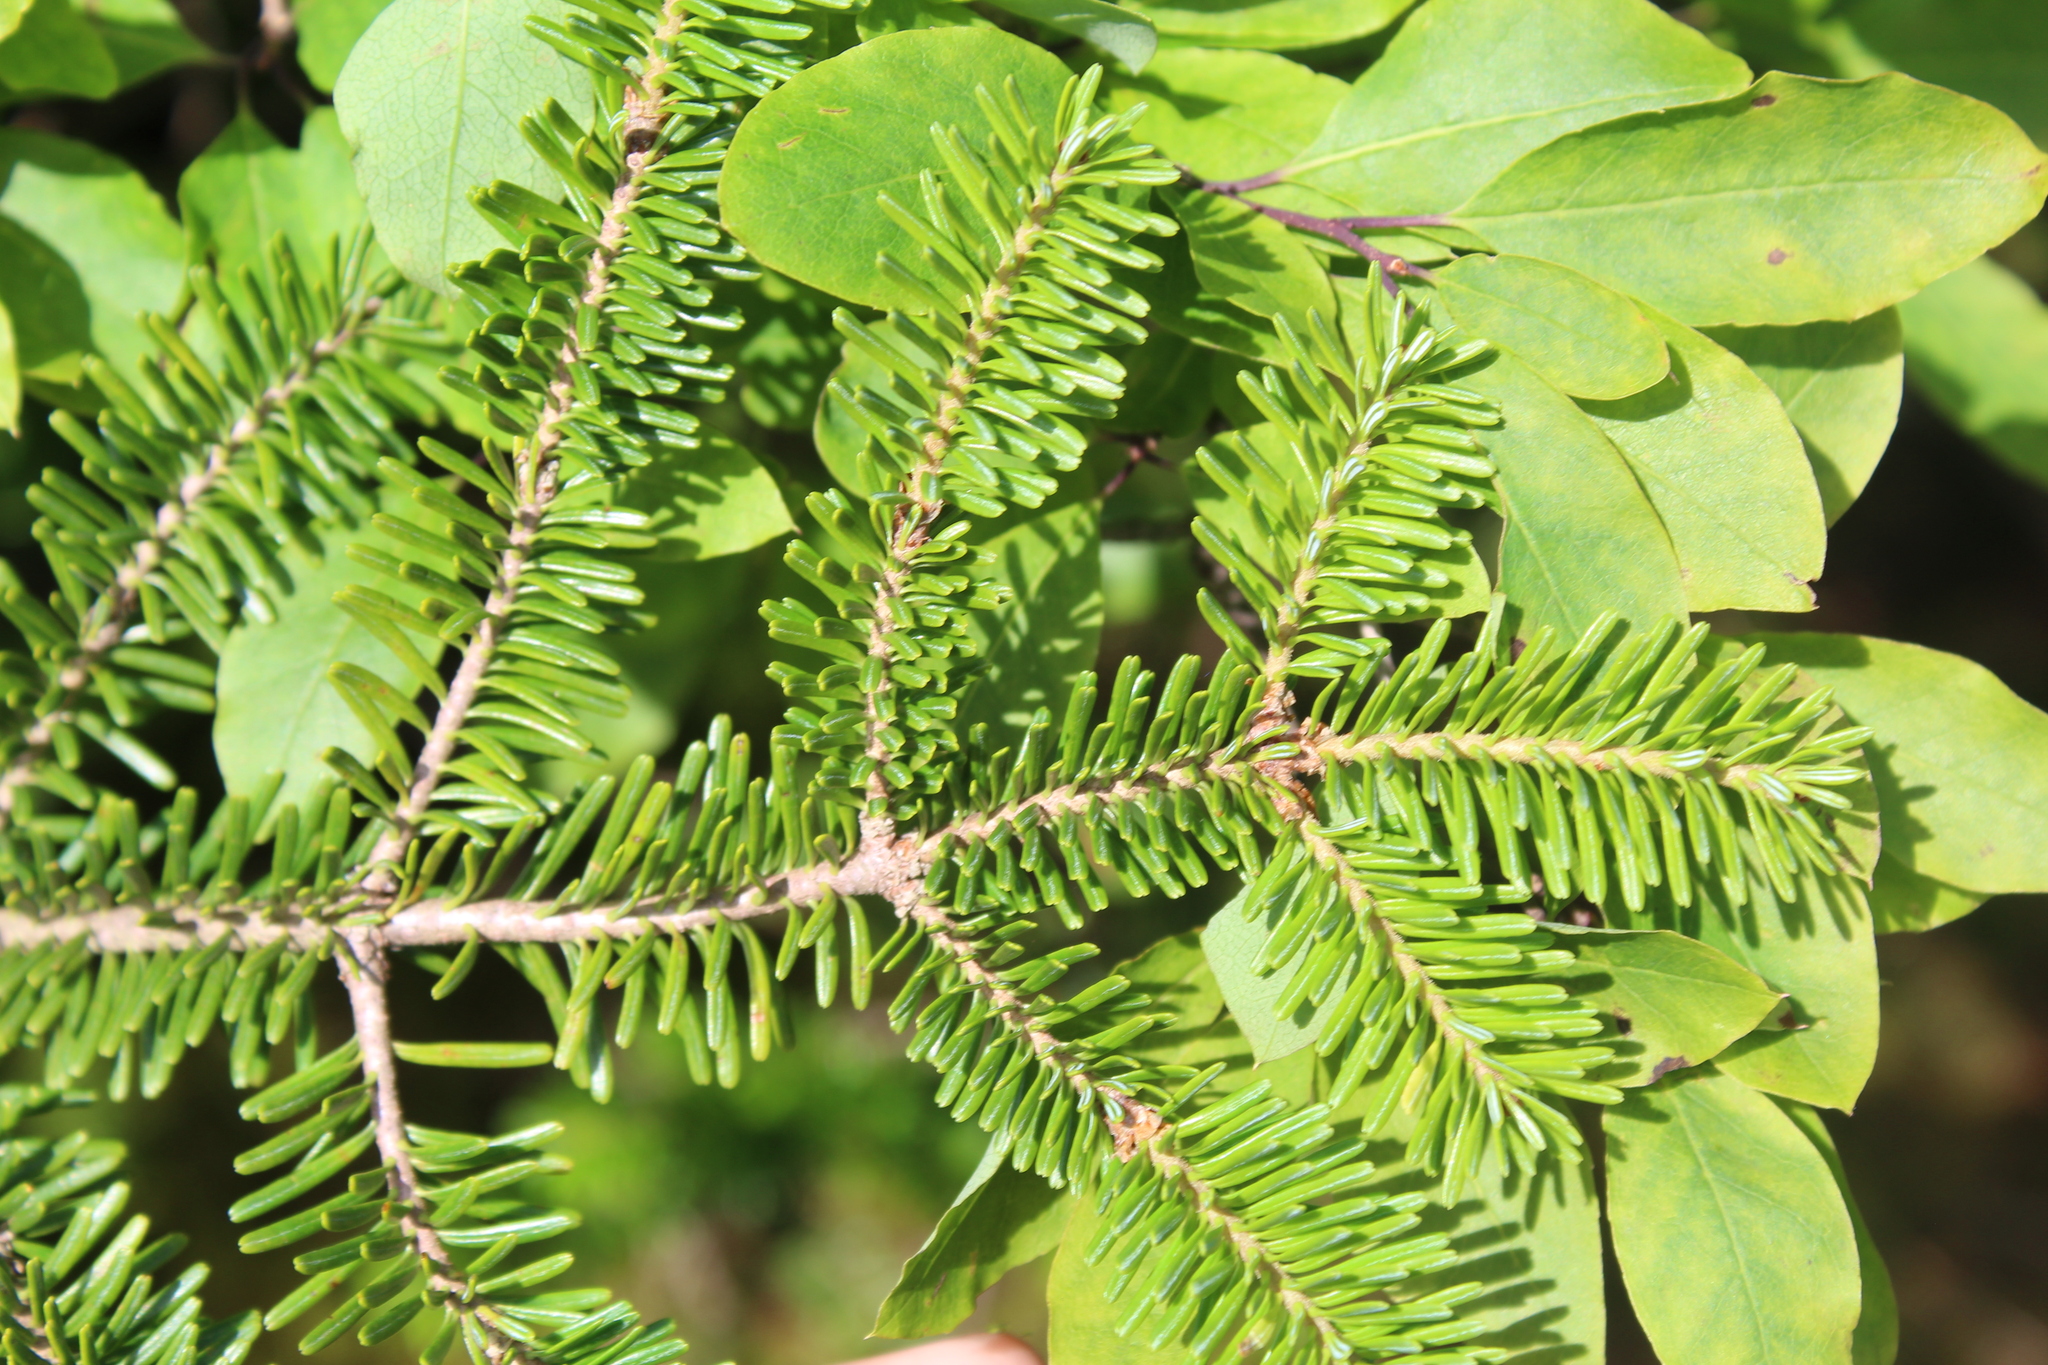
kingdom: Plantae
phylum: Tracheophyta
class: Pinopsida
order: Pinales
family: Pinaceae
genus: Abies
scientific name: Abies balsamea
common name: Balsam fir
